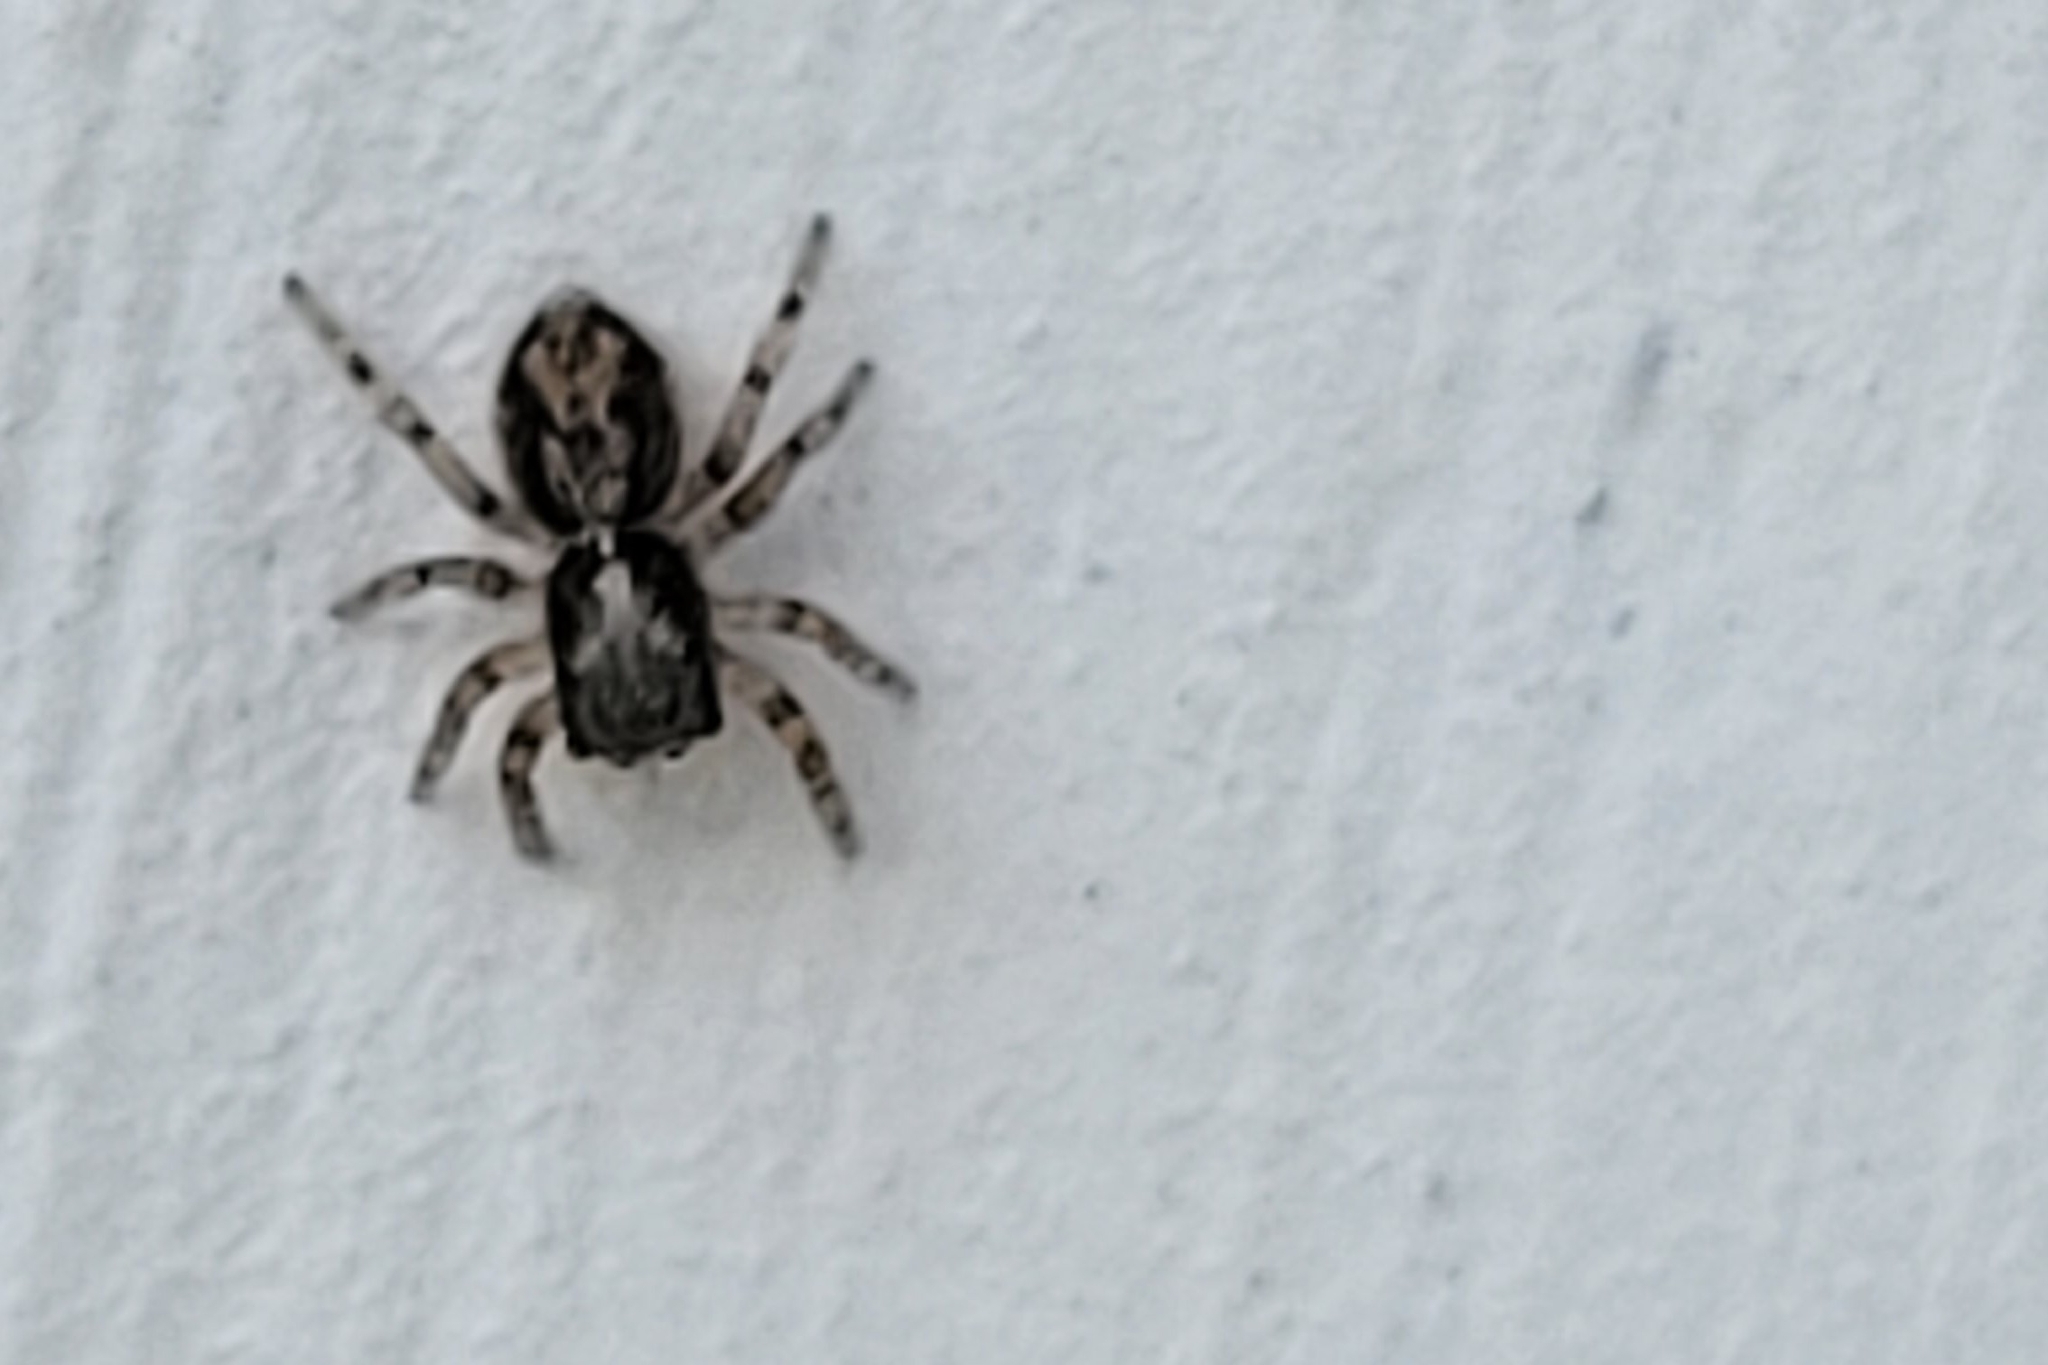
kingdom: Animalia
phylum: Arthropoda
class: Arachnida
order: Araneae
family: Salticidae
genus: Pseudeuophrys
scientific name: Pseudeuophrys lanigera
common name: Jumping spider
